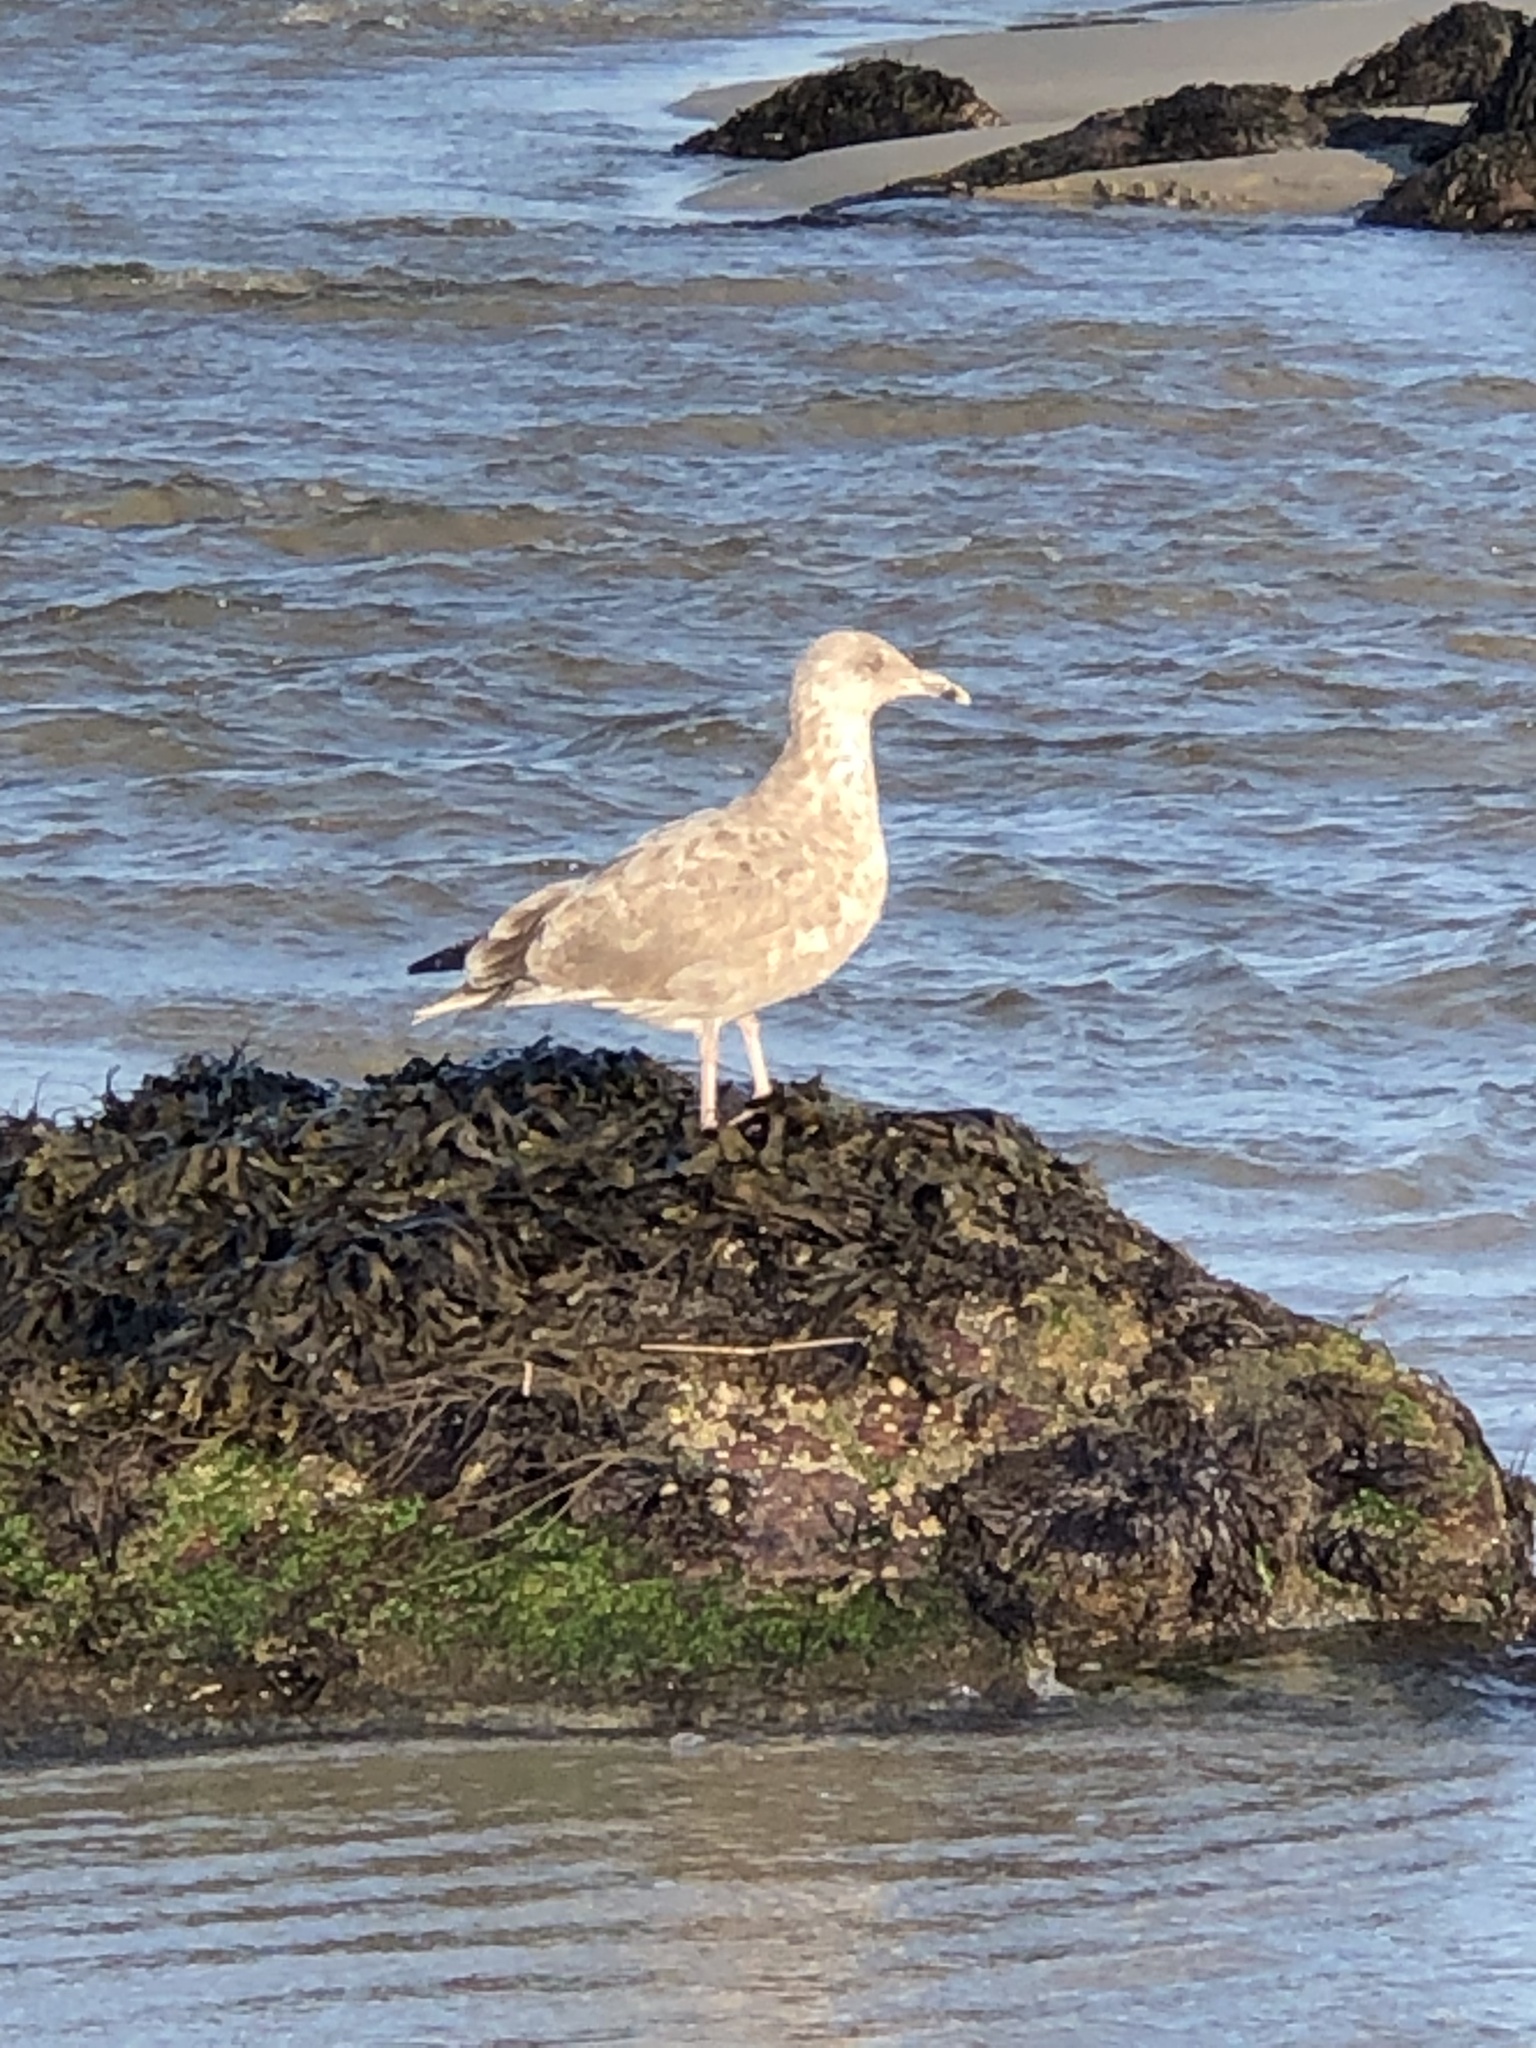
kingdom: Animalia
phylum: Chordata
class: Aves
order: Charadriiformes
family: Laridae
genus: Larus
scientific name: Larus argentatus
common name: Herring gull
